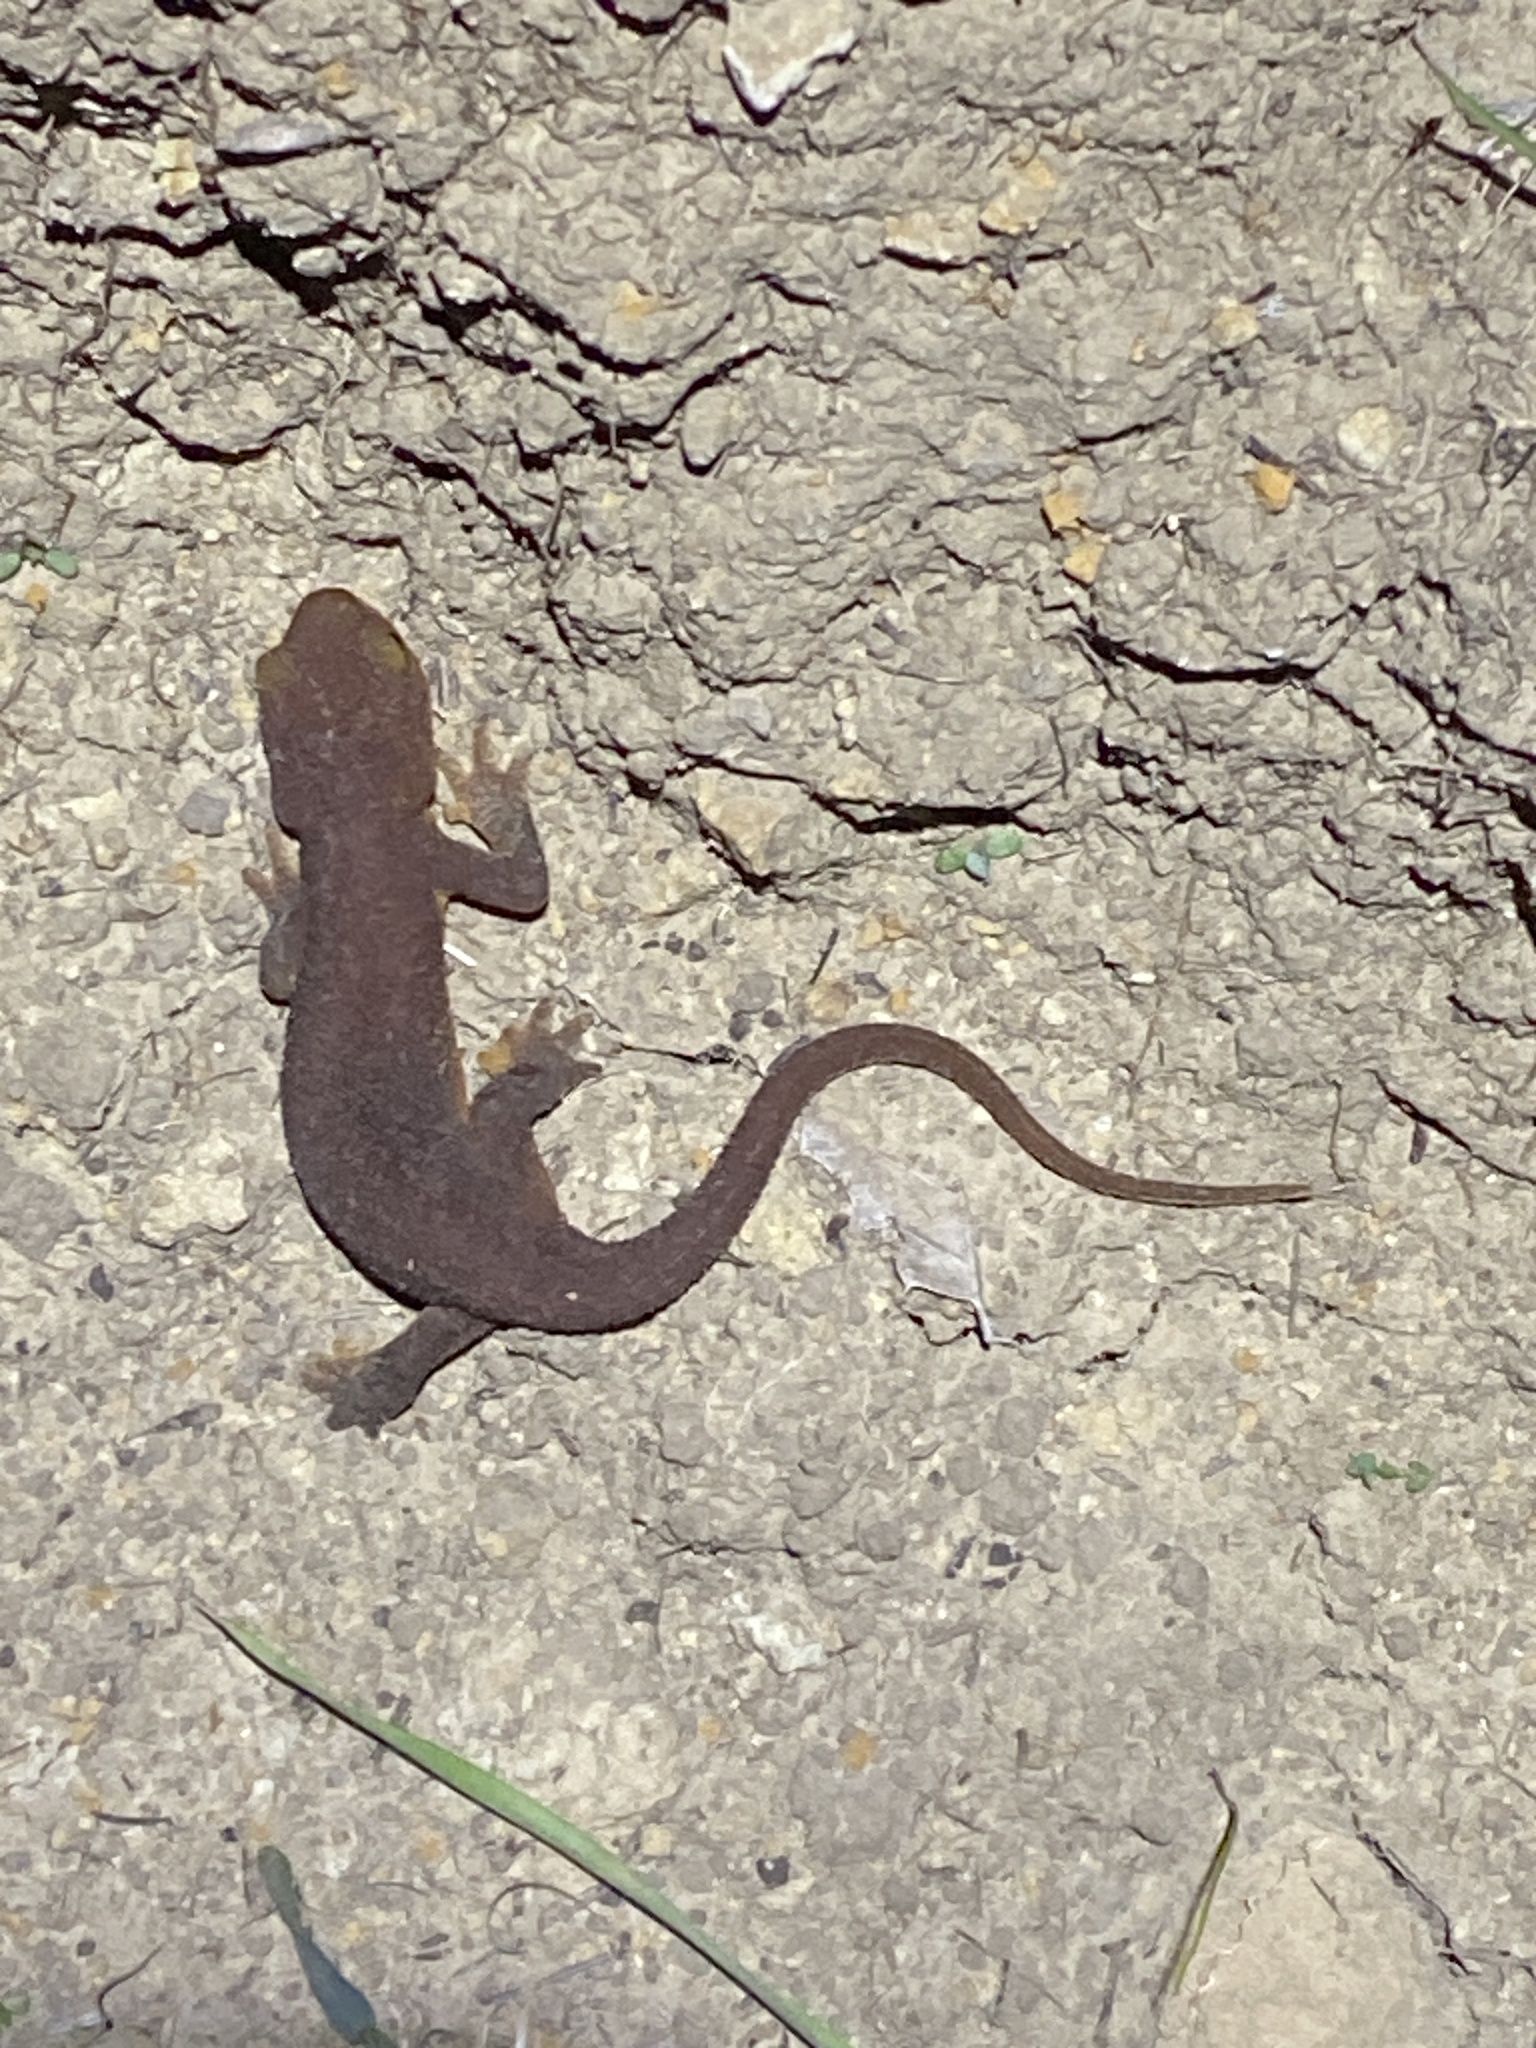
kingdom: Animalia
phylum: Chordata
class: Amphibia
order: Caudata
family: Salamandridae
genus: Taricha
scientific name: Taricha torosa
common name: California newt
